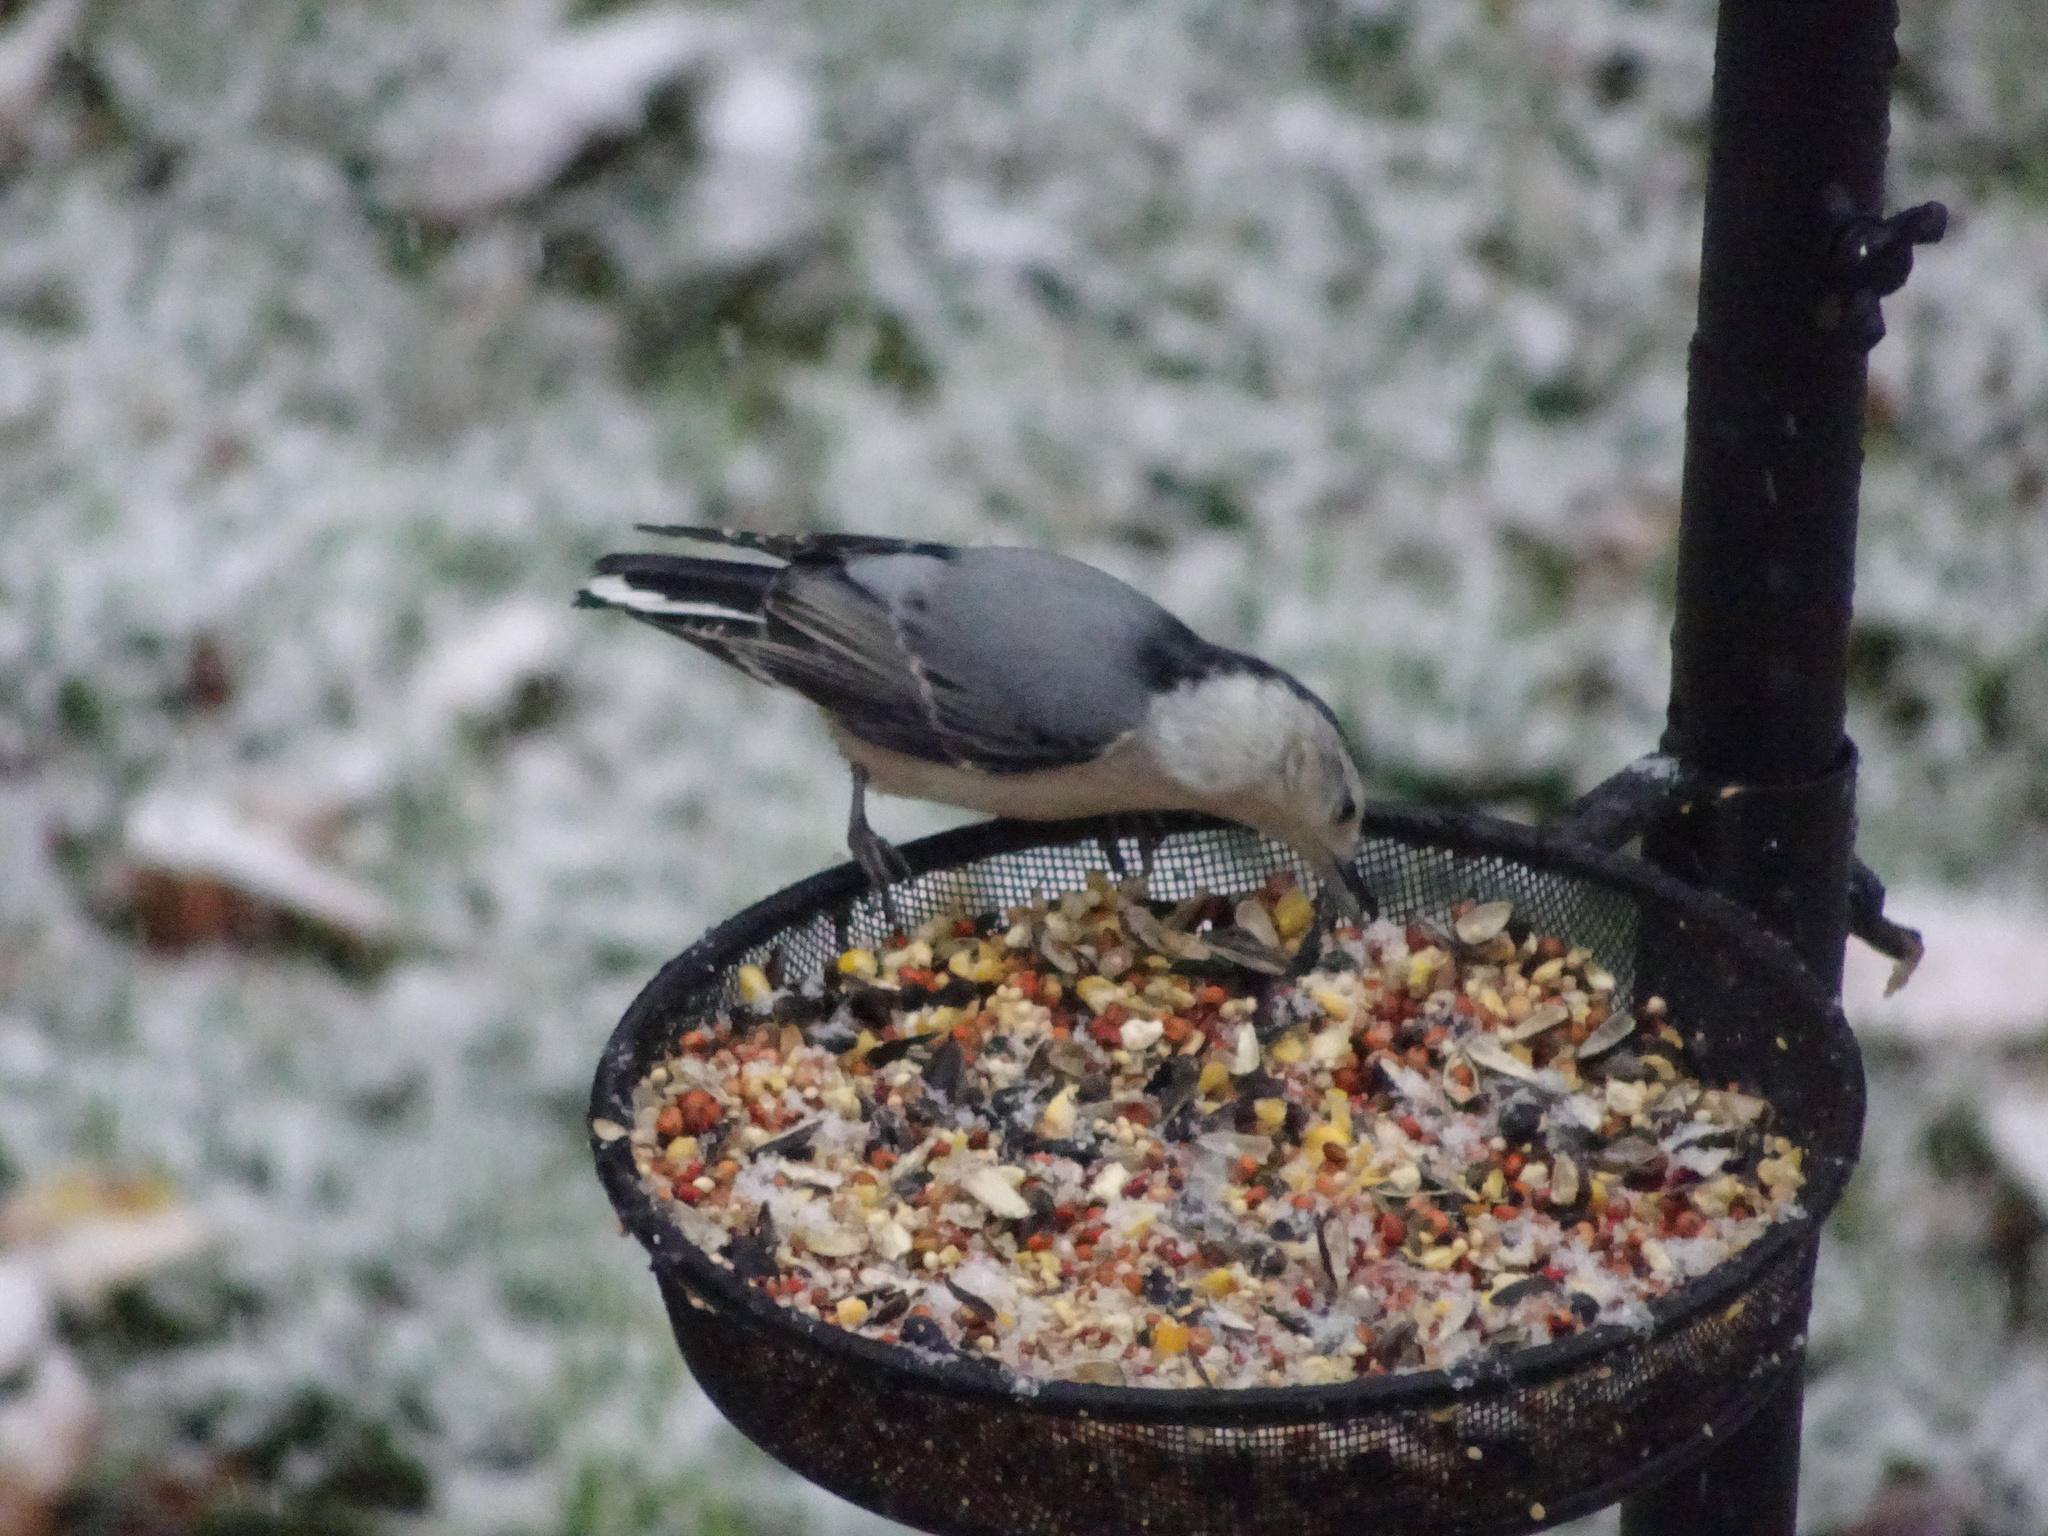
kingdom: Animalia
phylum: Chordata
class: Aves
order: Passeriformes
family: Sittidae
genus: Sitta
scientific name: Sitta carolinensis
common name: White-breasted nuthatch
